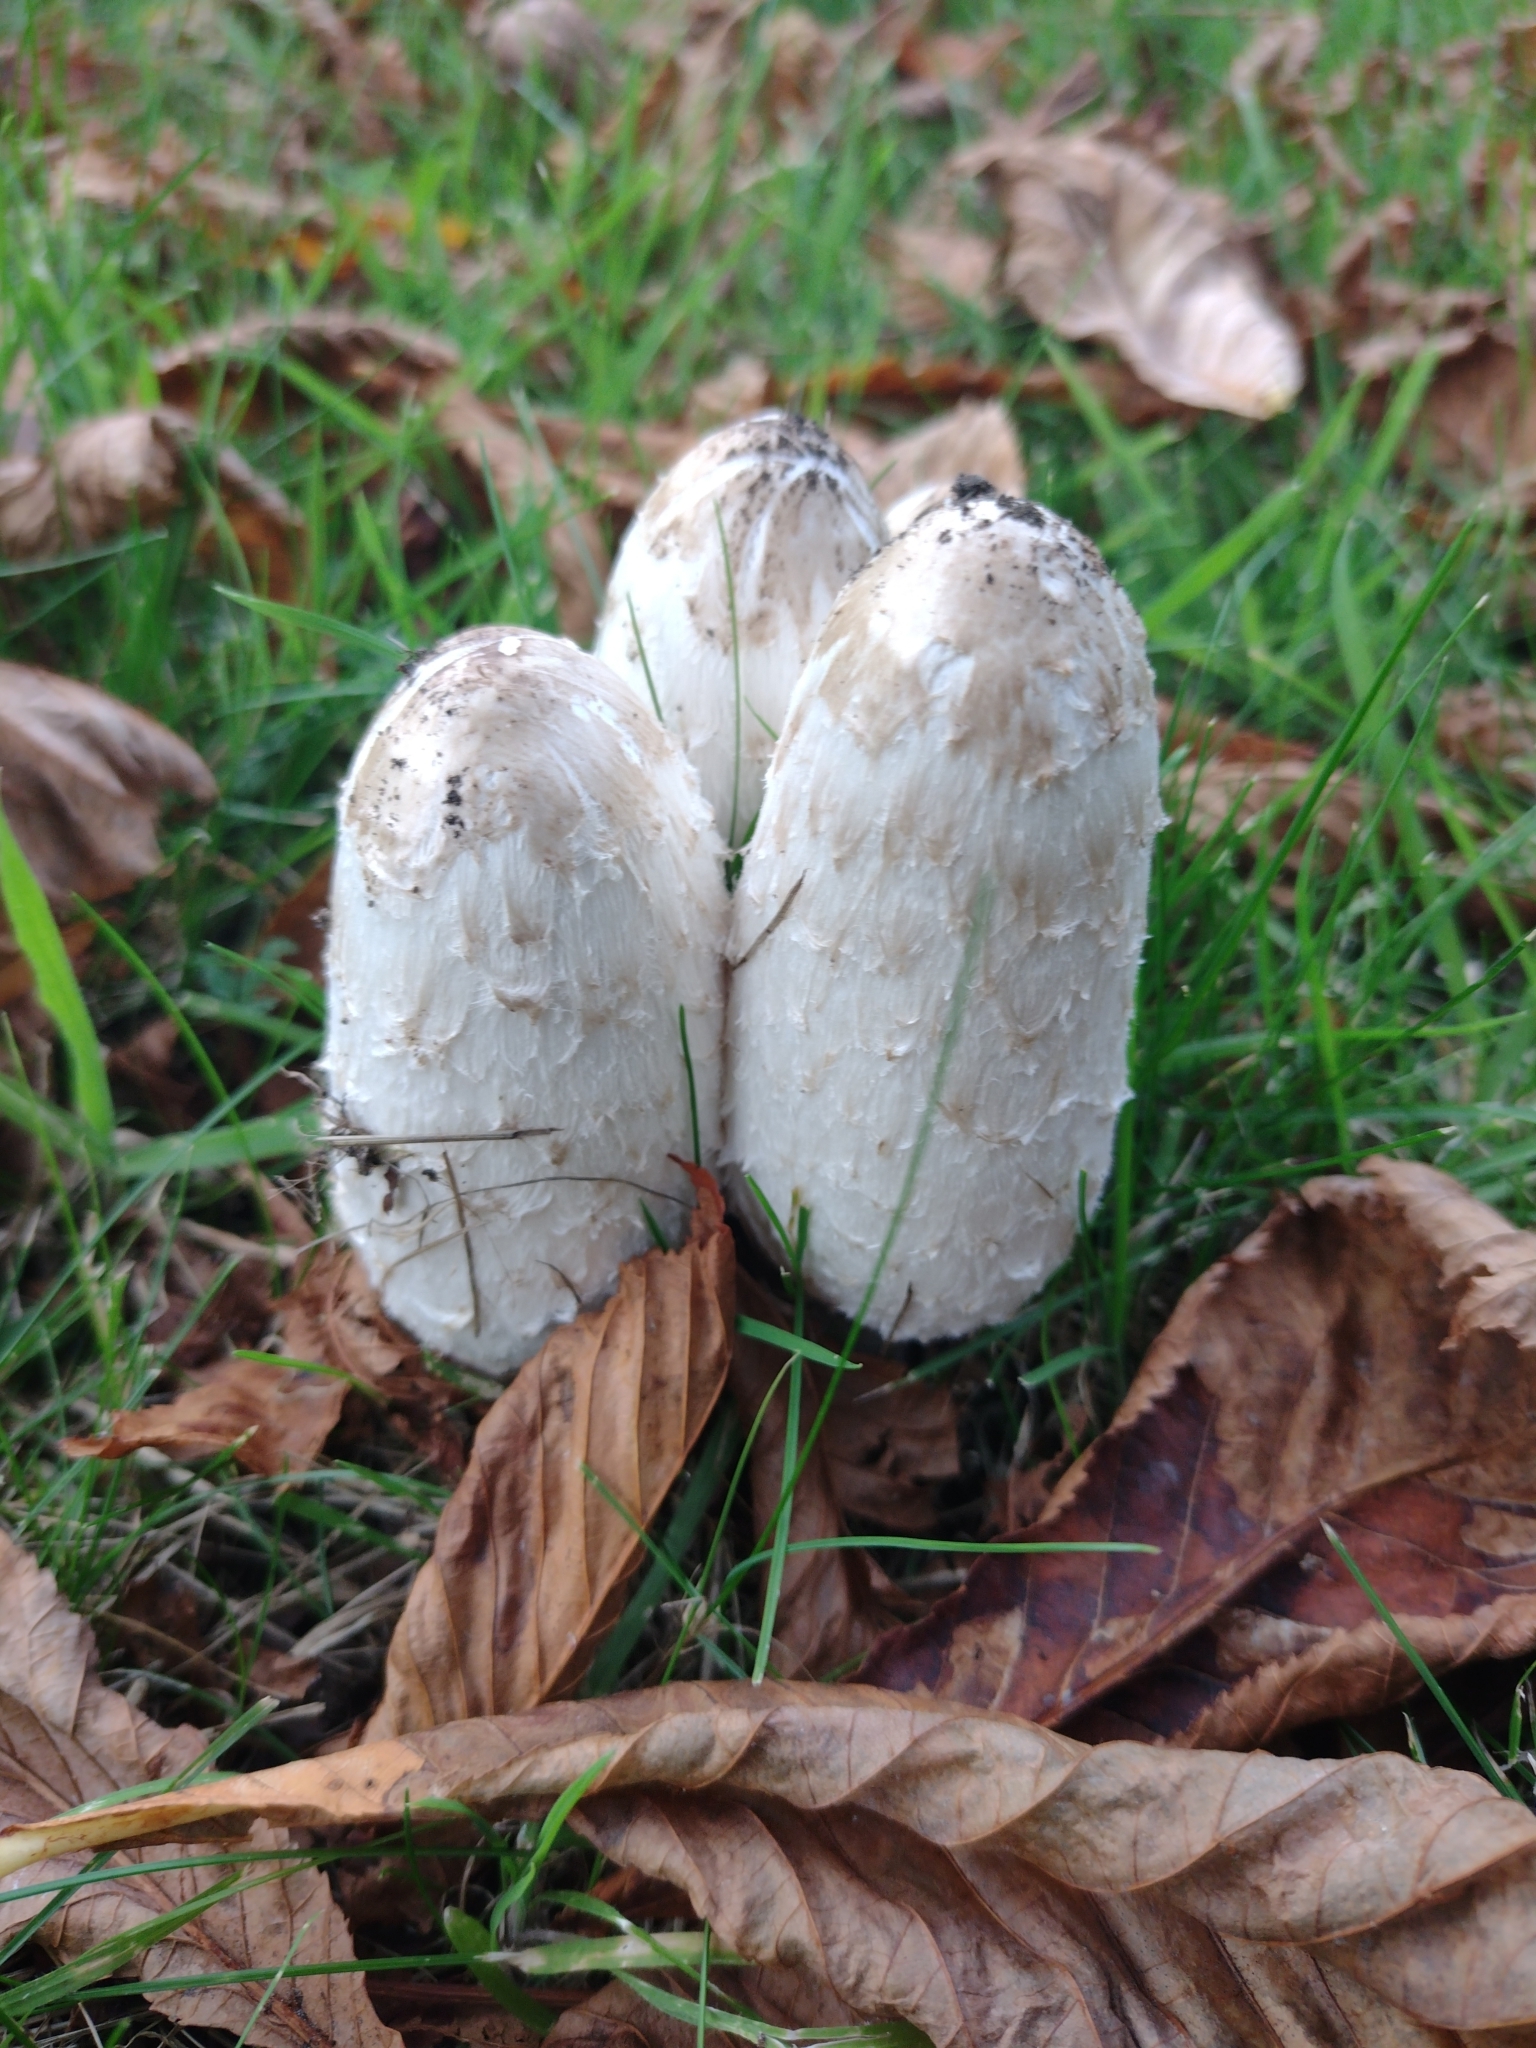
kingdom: Fungi
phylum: Basidiomycota
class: Agaricomycetes
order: Agaricales
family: Agaricaceae
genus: Coprinus
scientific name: Coprinus comatus
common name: Lawyer's wig
